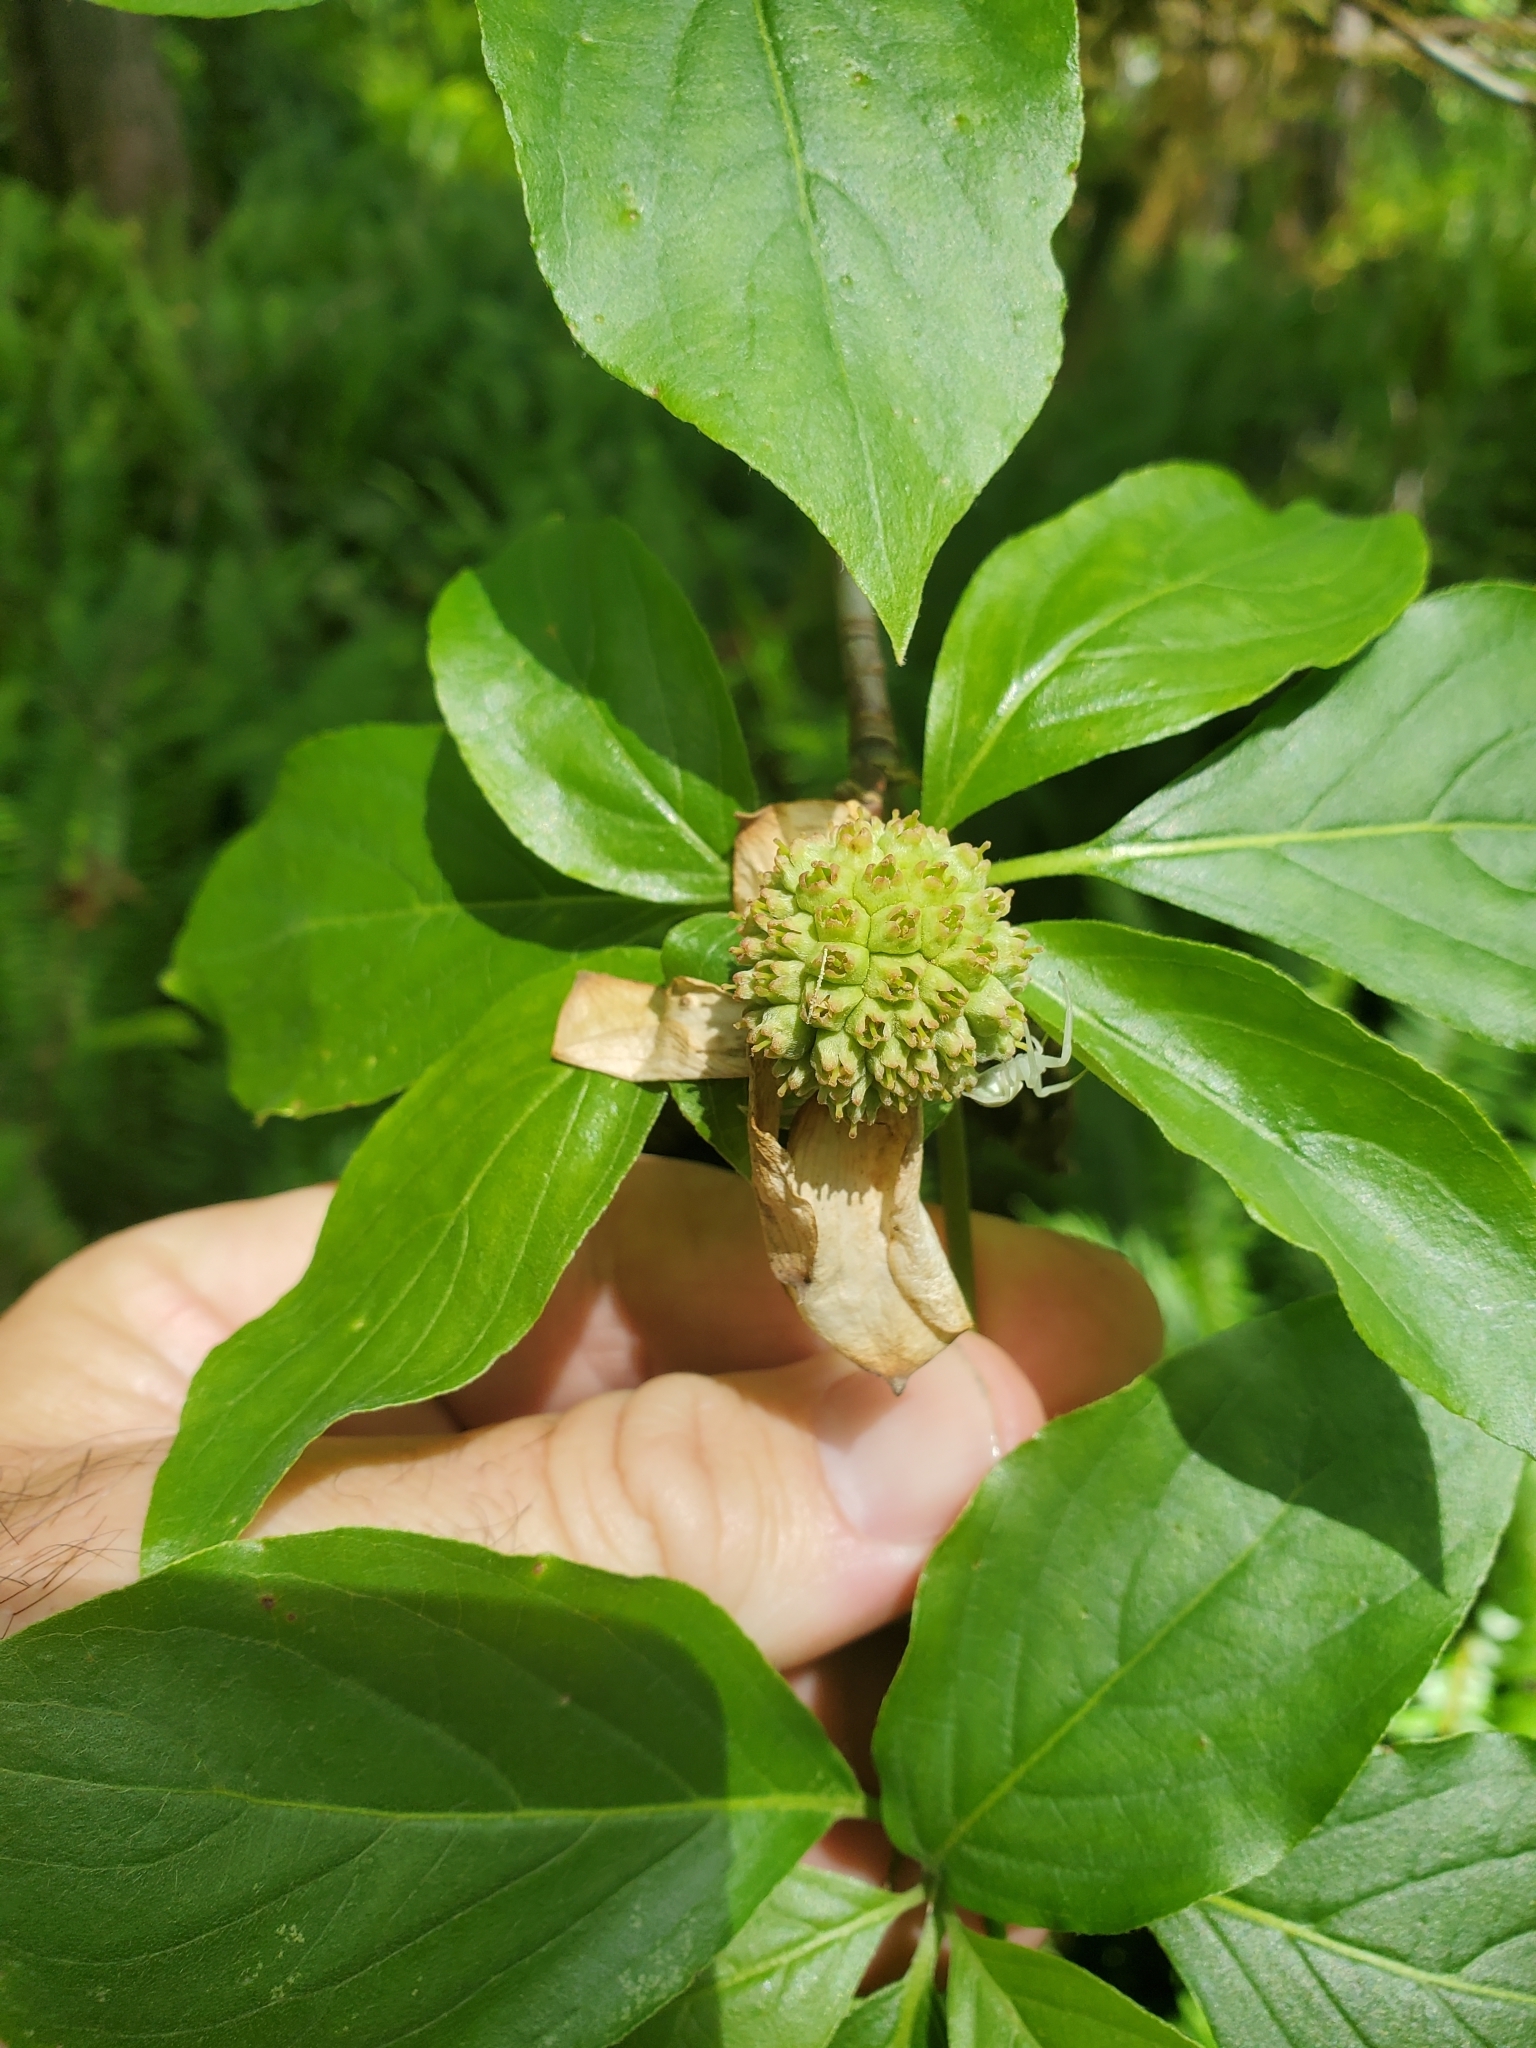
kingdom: Plantae
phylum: Tracheophyta
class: Magnoliopsida
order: Cornales
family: Cornaceae
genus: Cornus
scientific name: Cornus nuttallii
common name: Pacific dogwood
